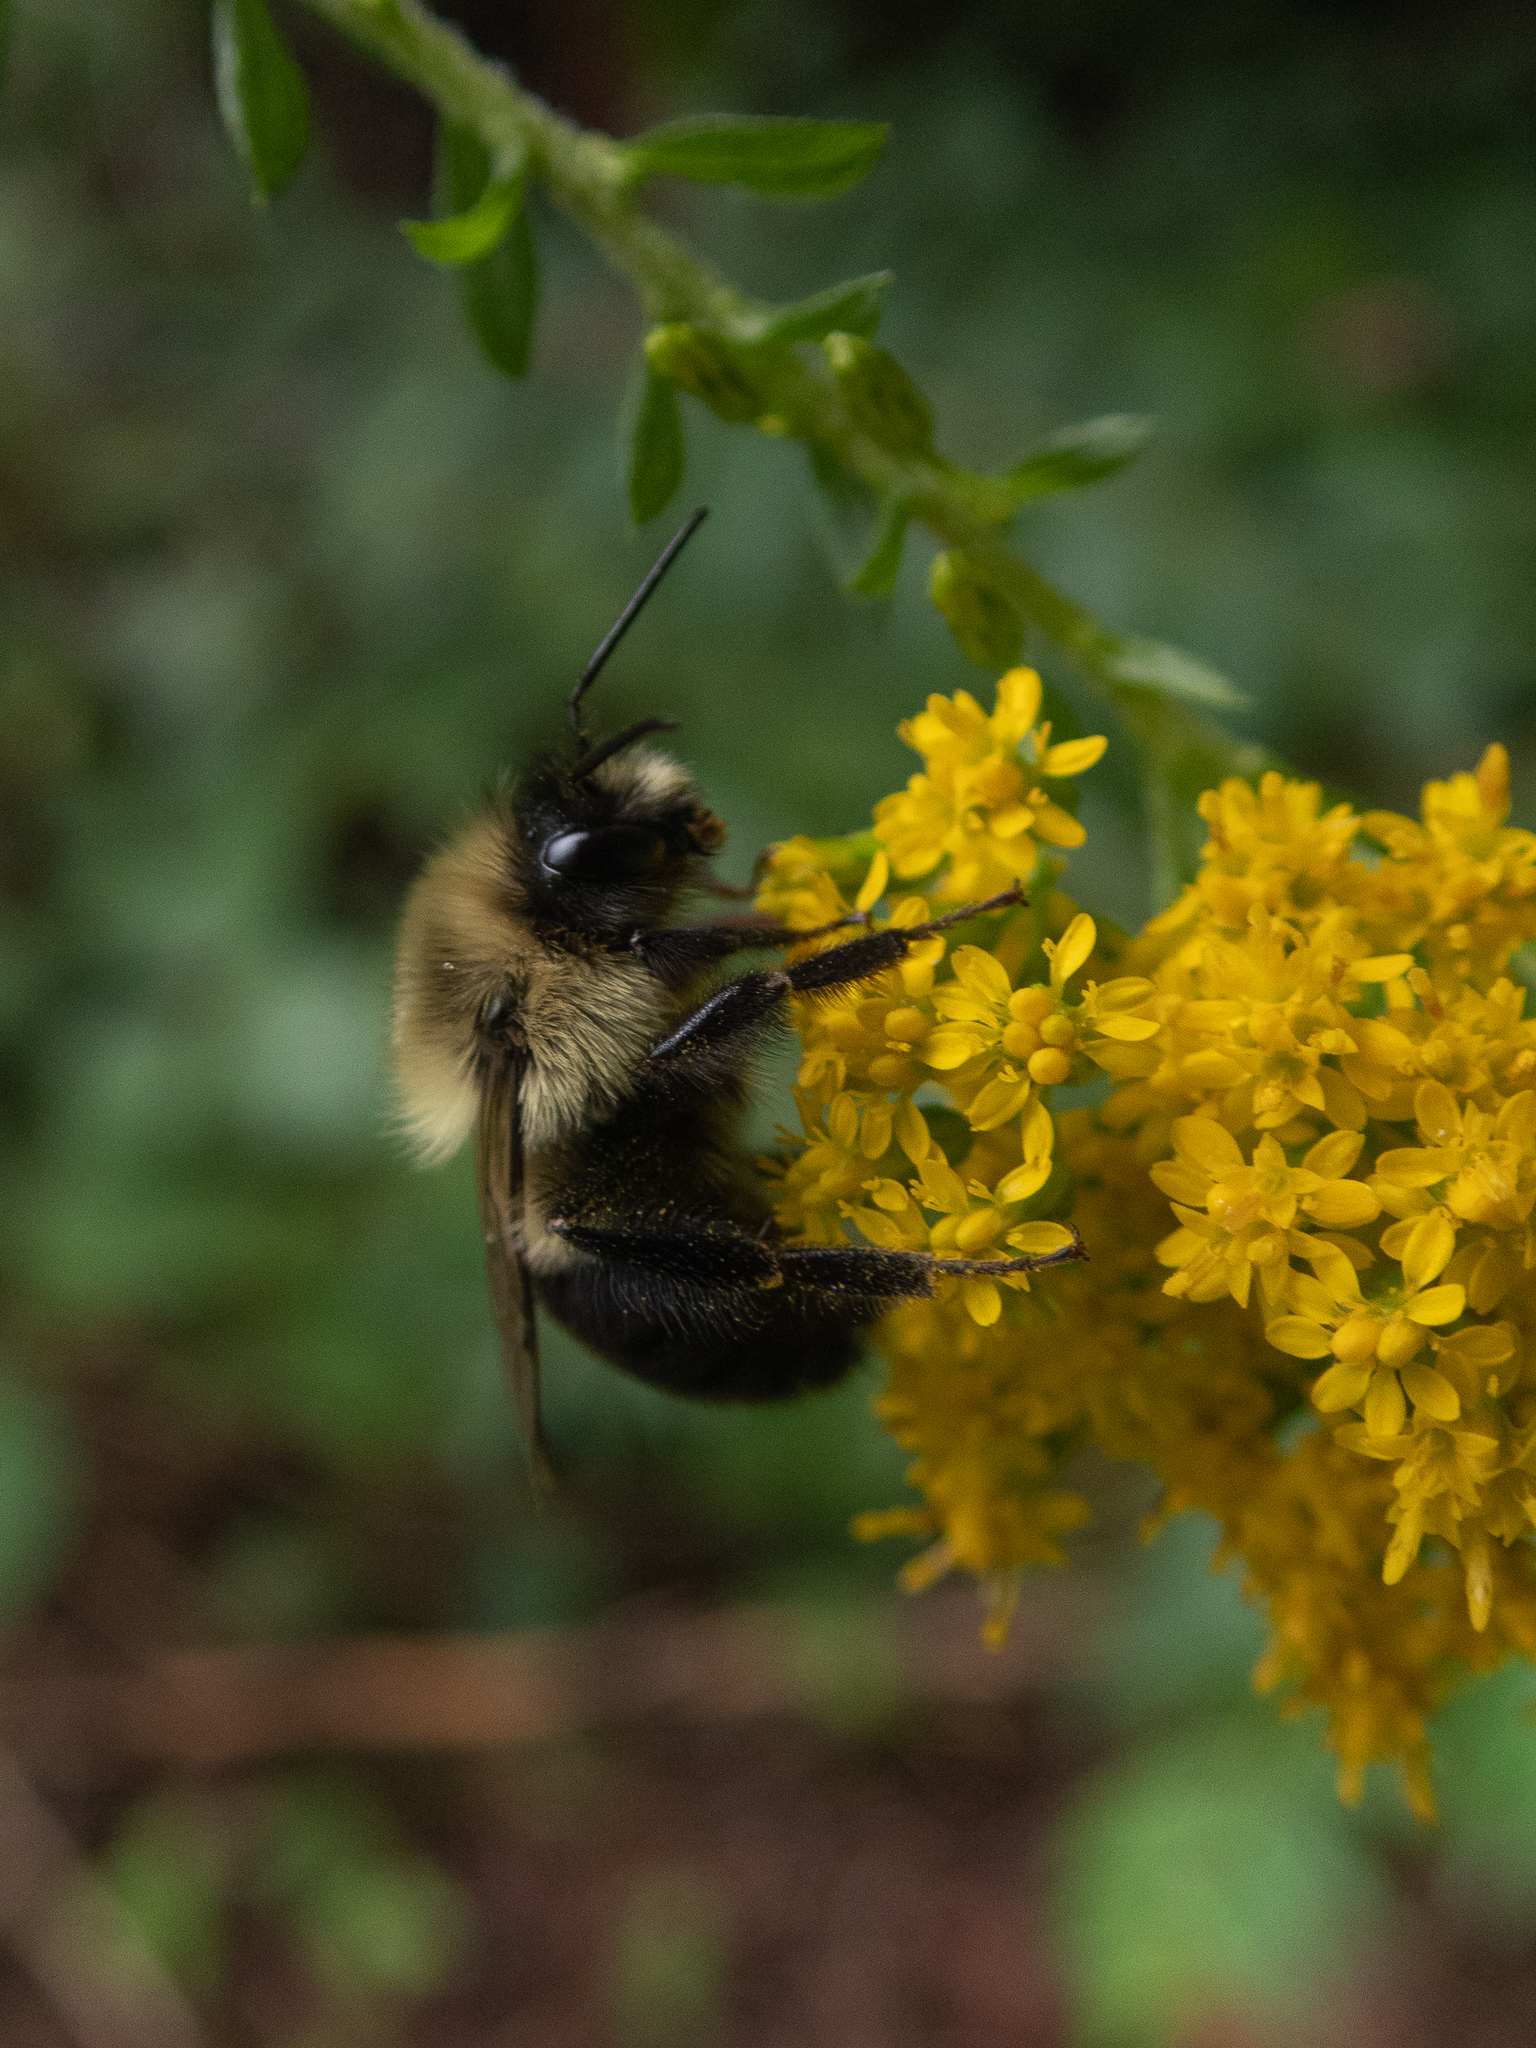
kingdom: Animalia
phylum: Arthropoda
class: Insecta
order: Hymenoptera
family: Apidae
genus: Bombus
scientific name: Bombus impatiens
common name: Common eastern bumble bee
